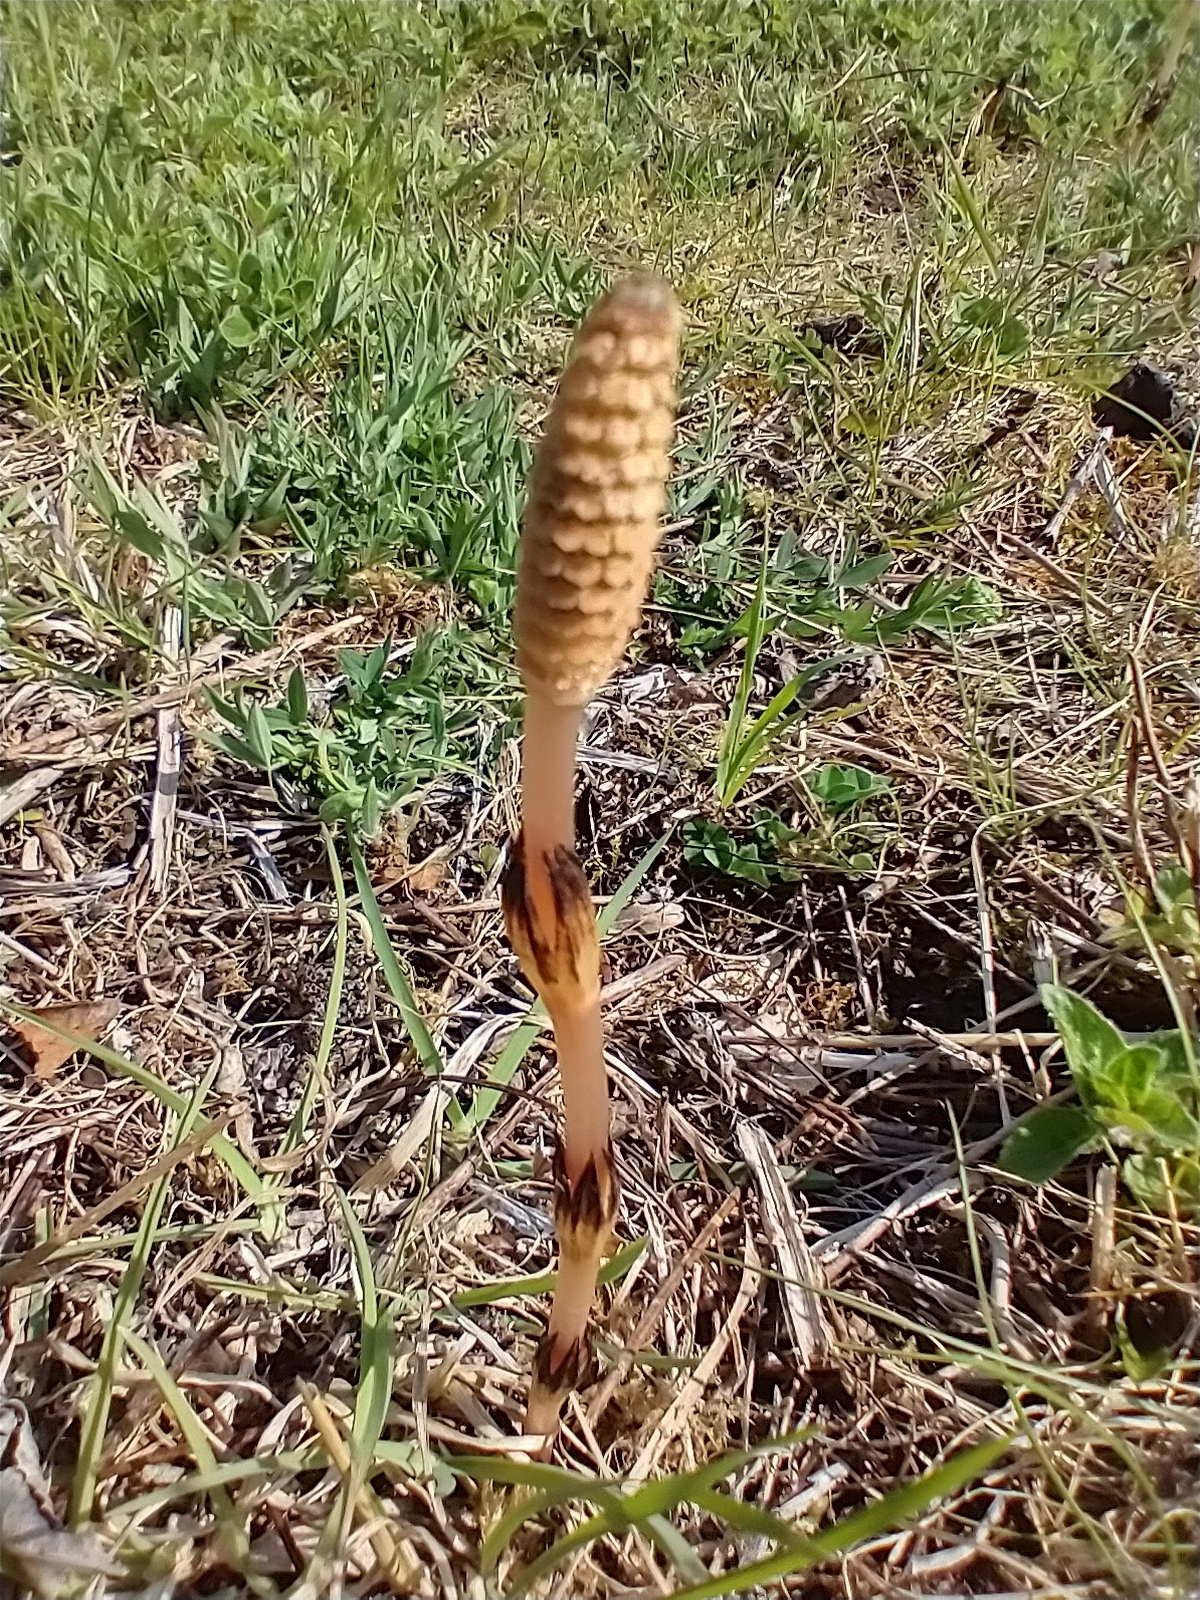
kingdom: Plantae
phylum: Tracheophyta
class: Polypodiopsida
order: Equisetales
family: Equisetaceae
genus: Equisetum
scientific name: Equisetum arvense
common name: Field horsetail
